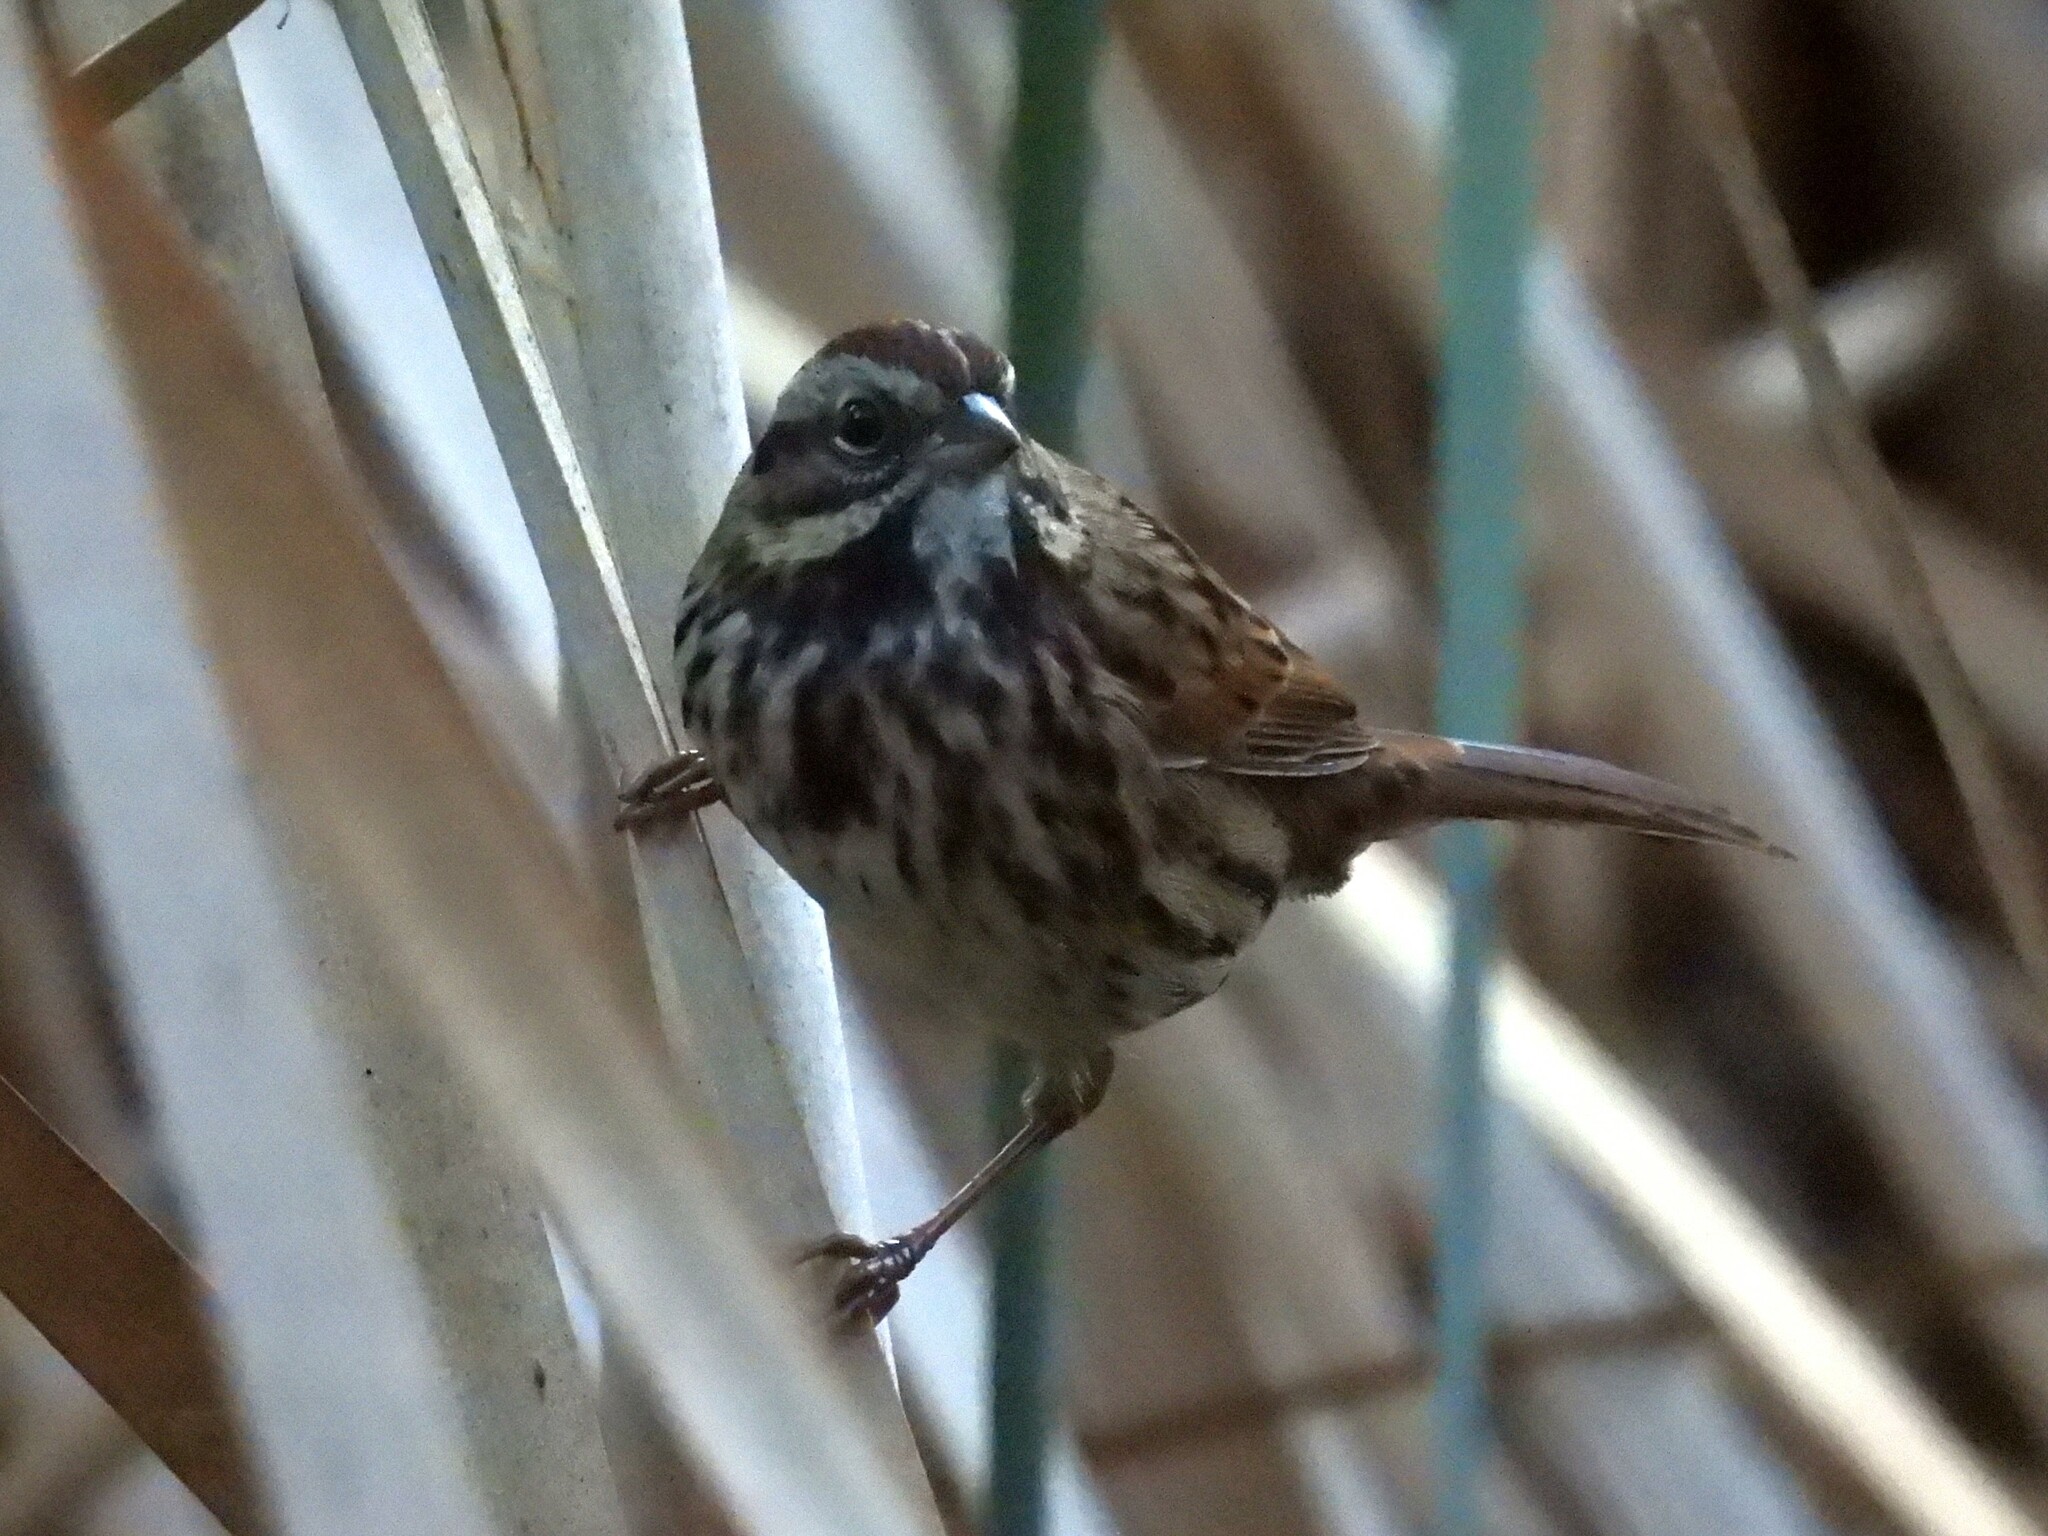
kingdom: Animalia
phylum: Chordata
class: Aves
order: Passeriformes
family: Passerellidae
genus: Melospiza
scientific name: Melospiza melodia
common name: Song sparrow
